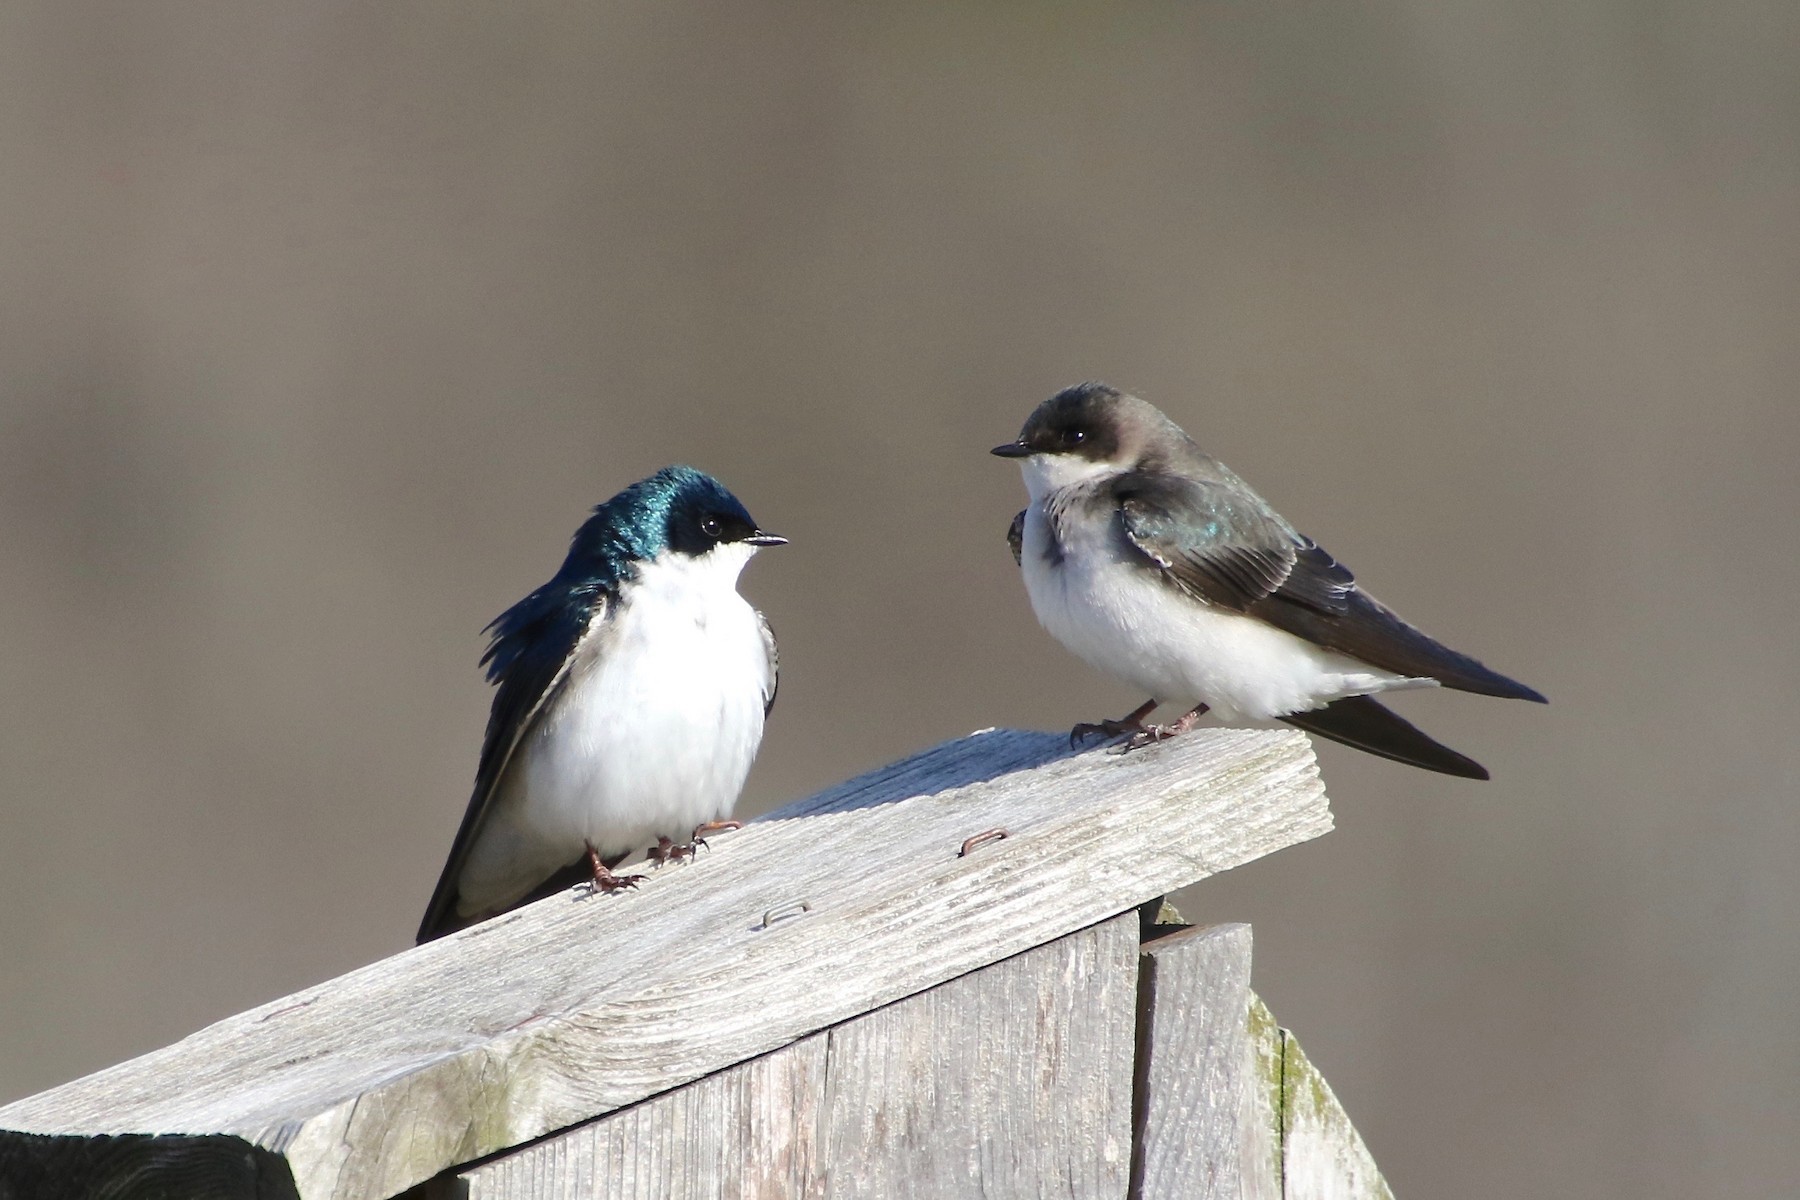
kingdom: Animalia
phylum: Chordata
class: Aves
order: Passeriformes
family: Hirundinidae
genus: Tachycineta
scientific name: Tachycineta bicolor
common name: Tree swallow
